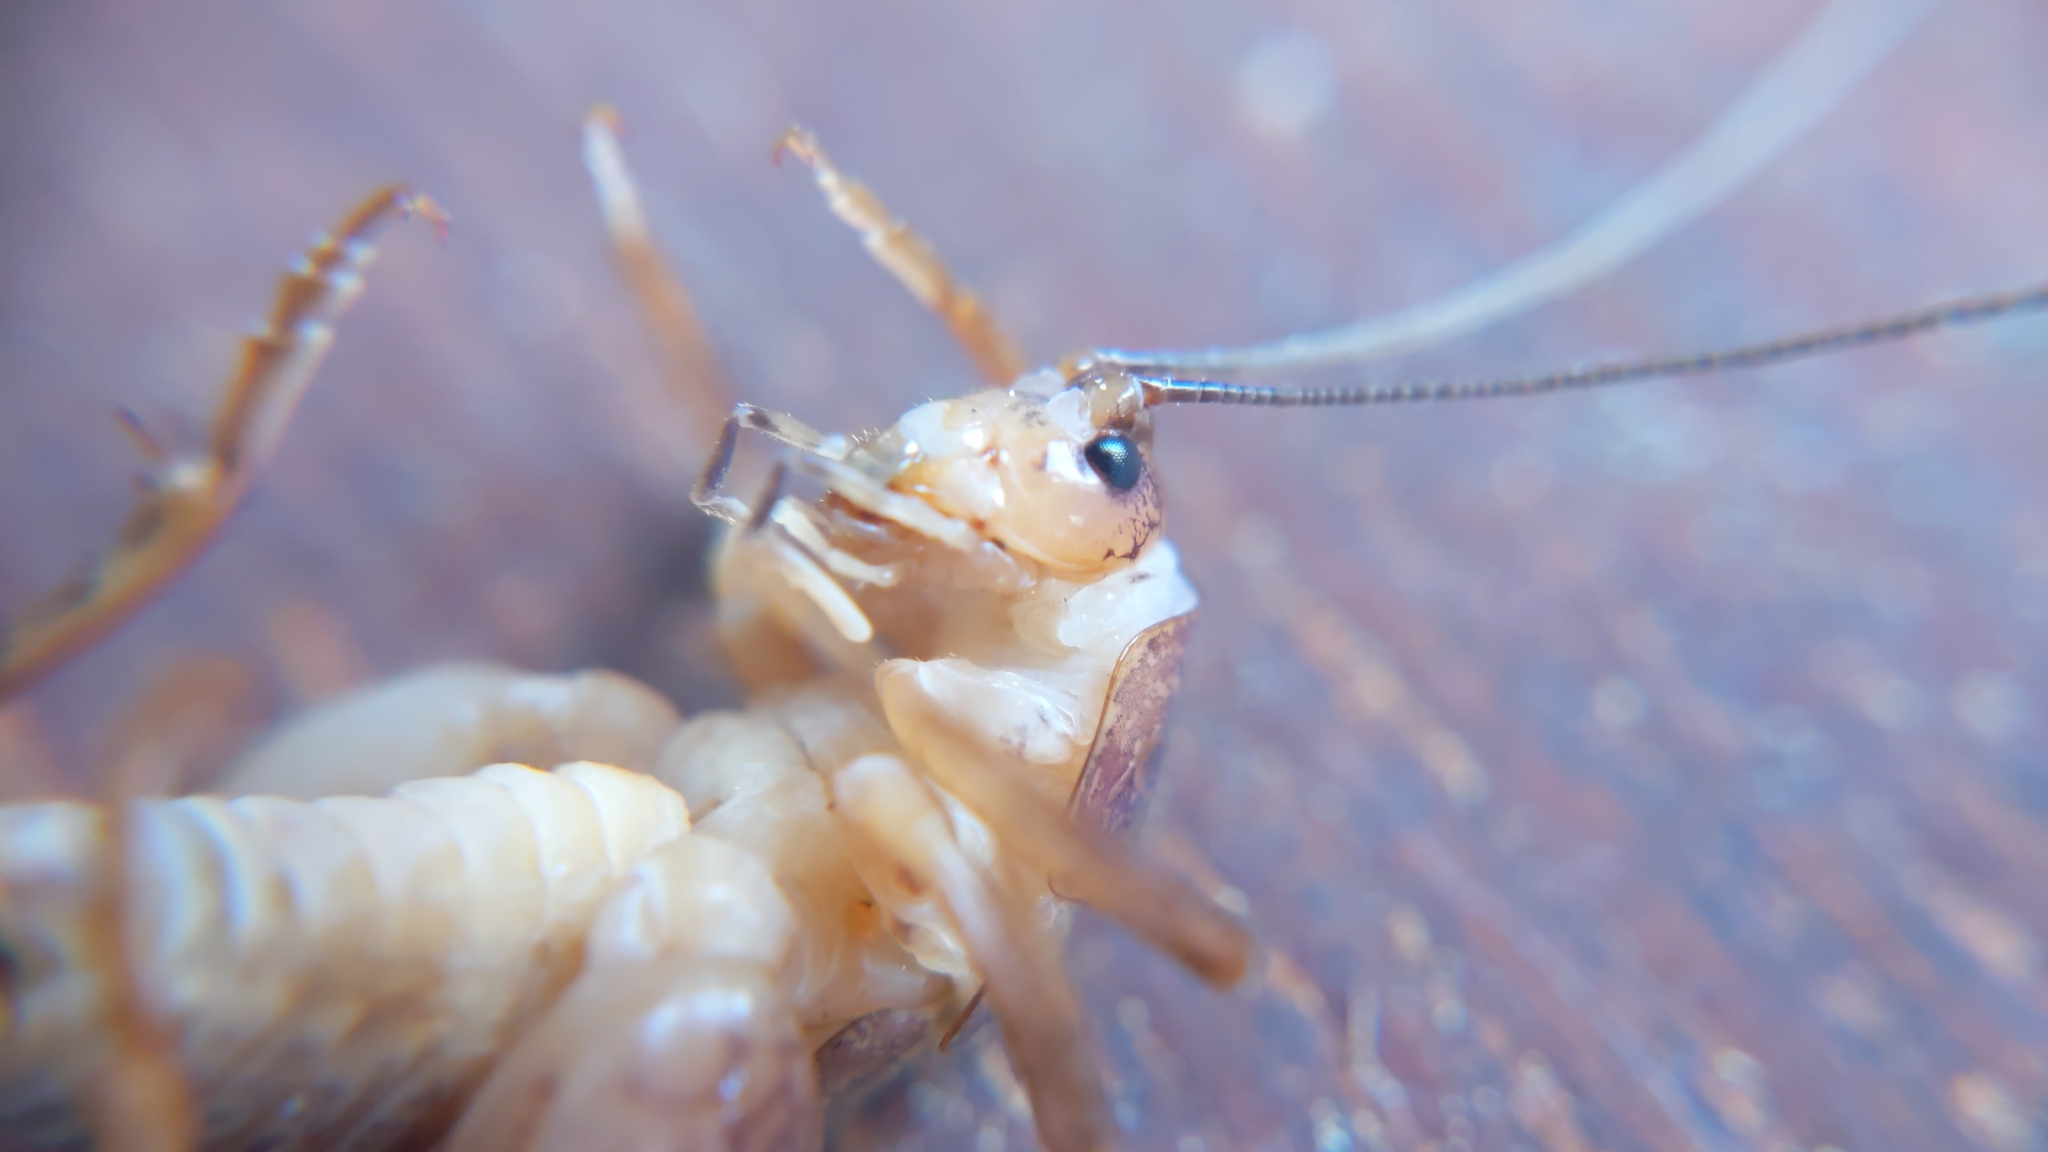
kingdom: Animalia
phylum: Arthropoda
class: Insecta
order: Orthoptera
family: Rhaphidophoridae
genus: Pristoceuthophilus
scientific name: Pristoceuthophilus pacificus
